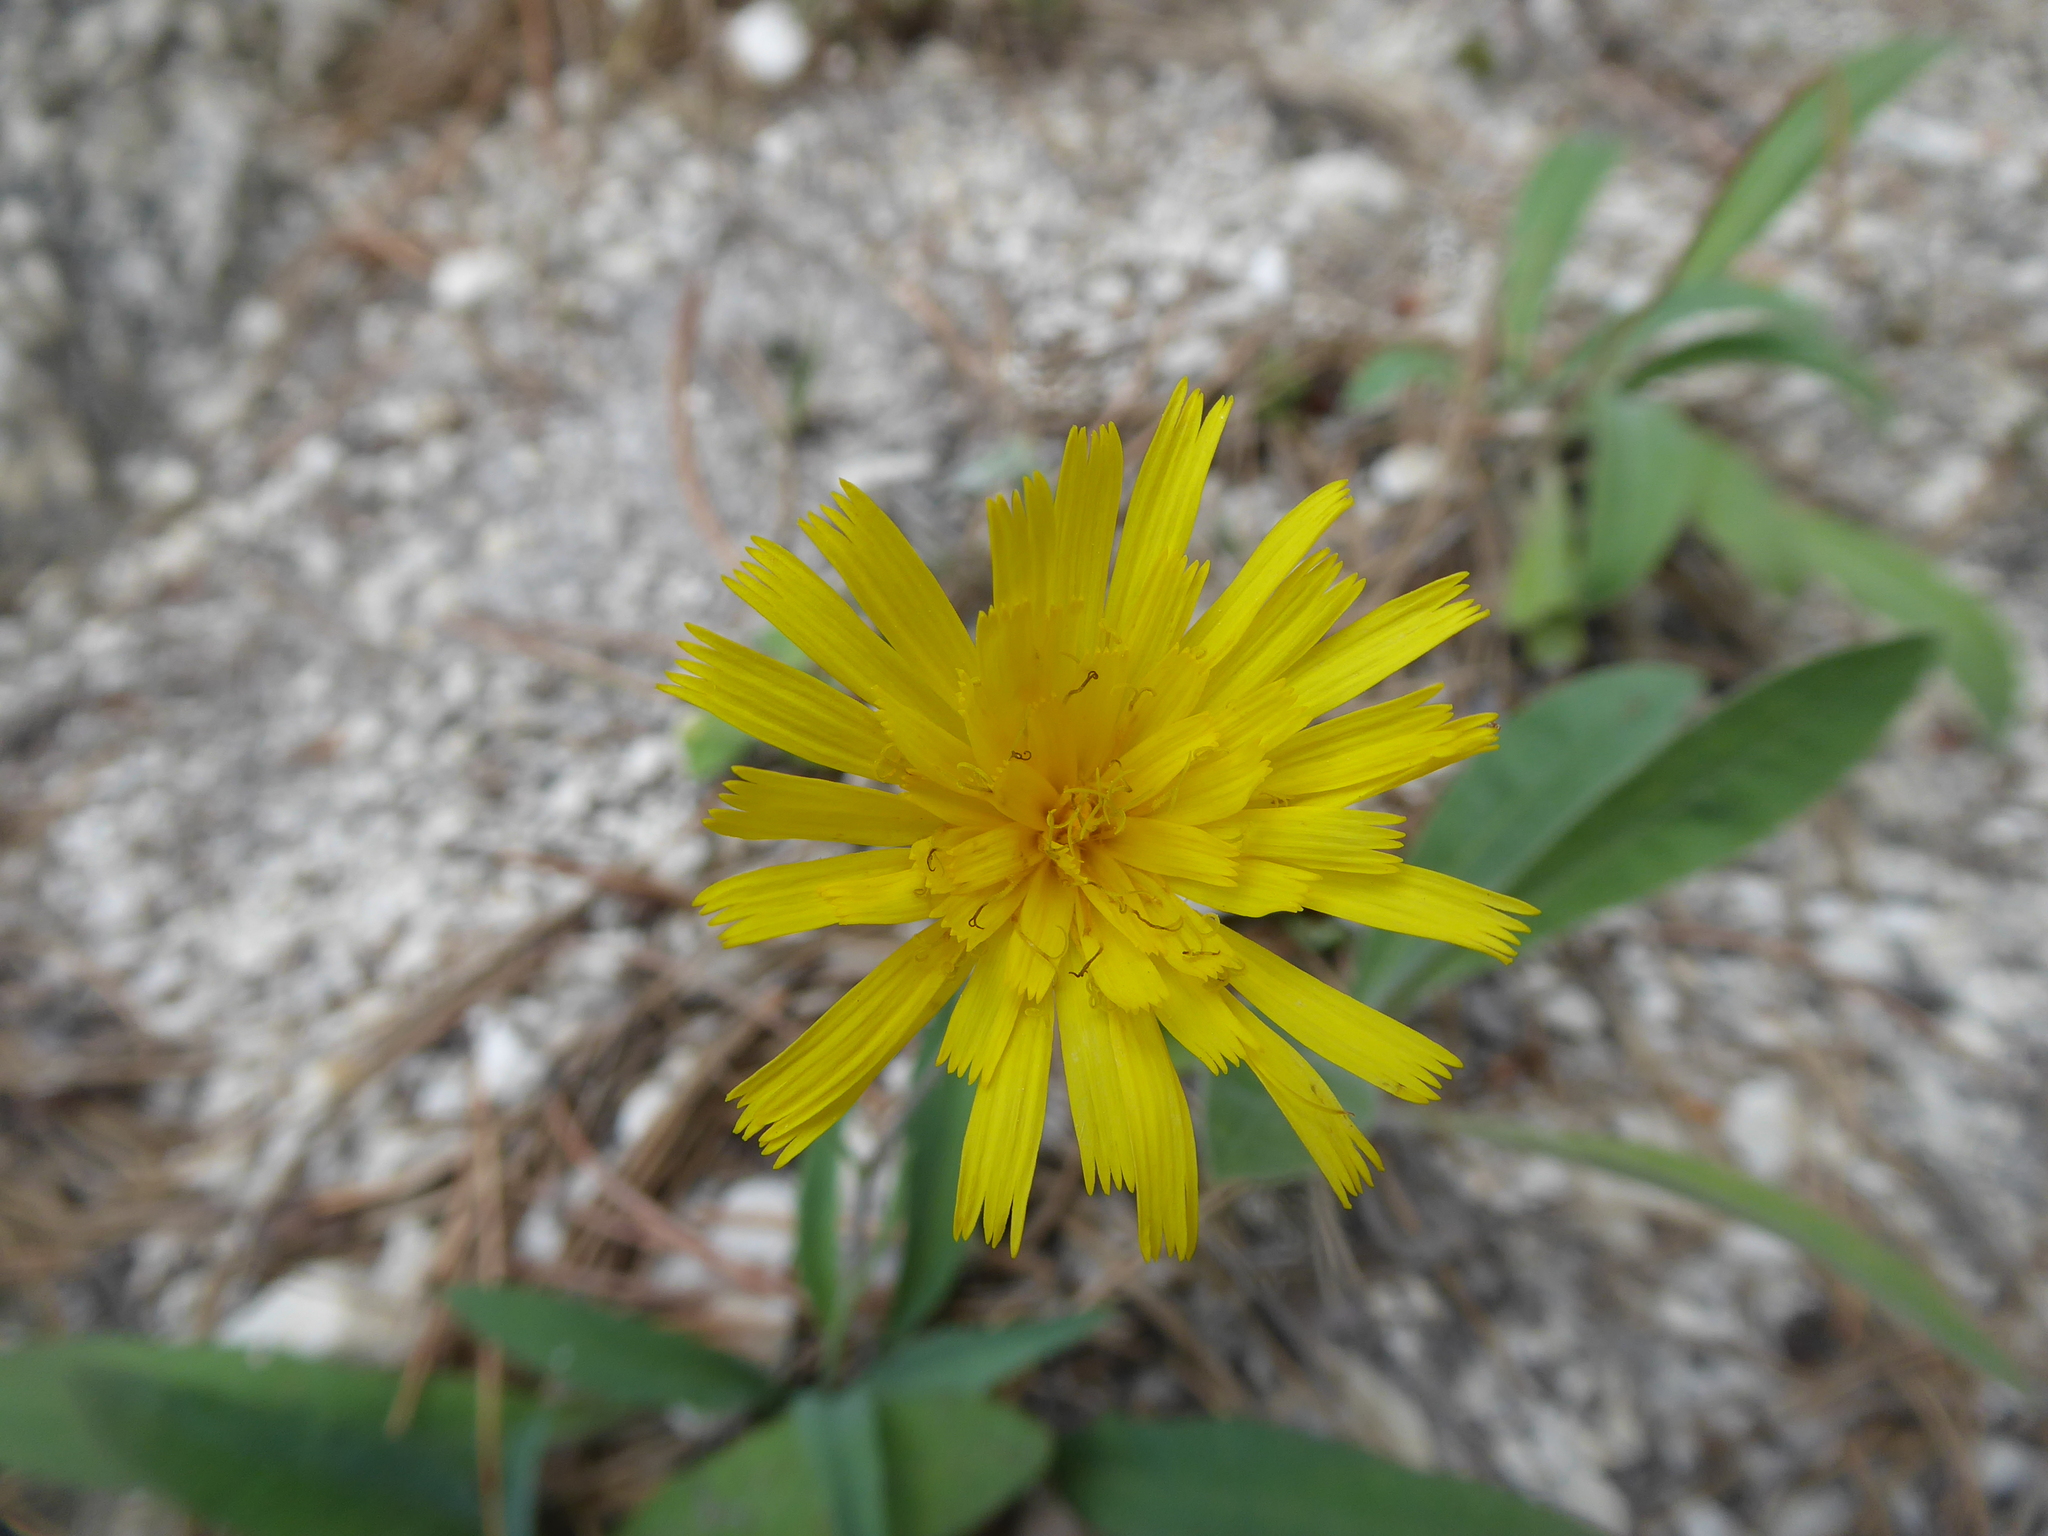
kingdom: Plantae
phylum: Tracheophyta
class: Magnoliopsida
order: Asterales
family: Asteraceae
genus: Leontodon
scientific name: Leontodon incanus
